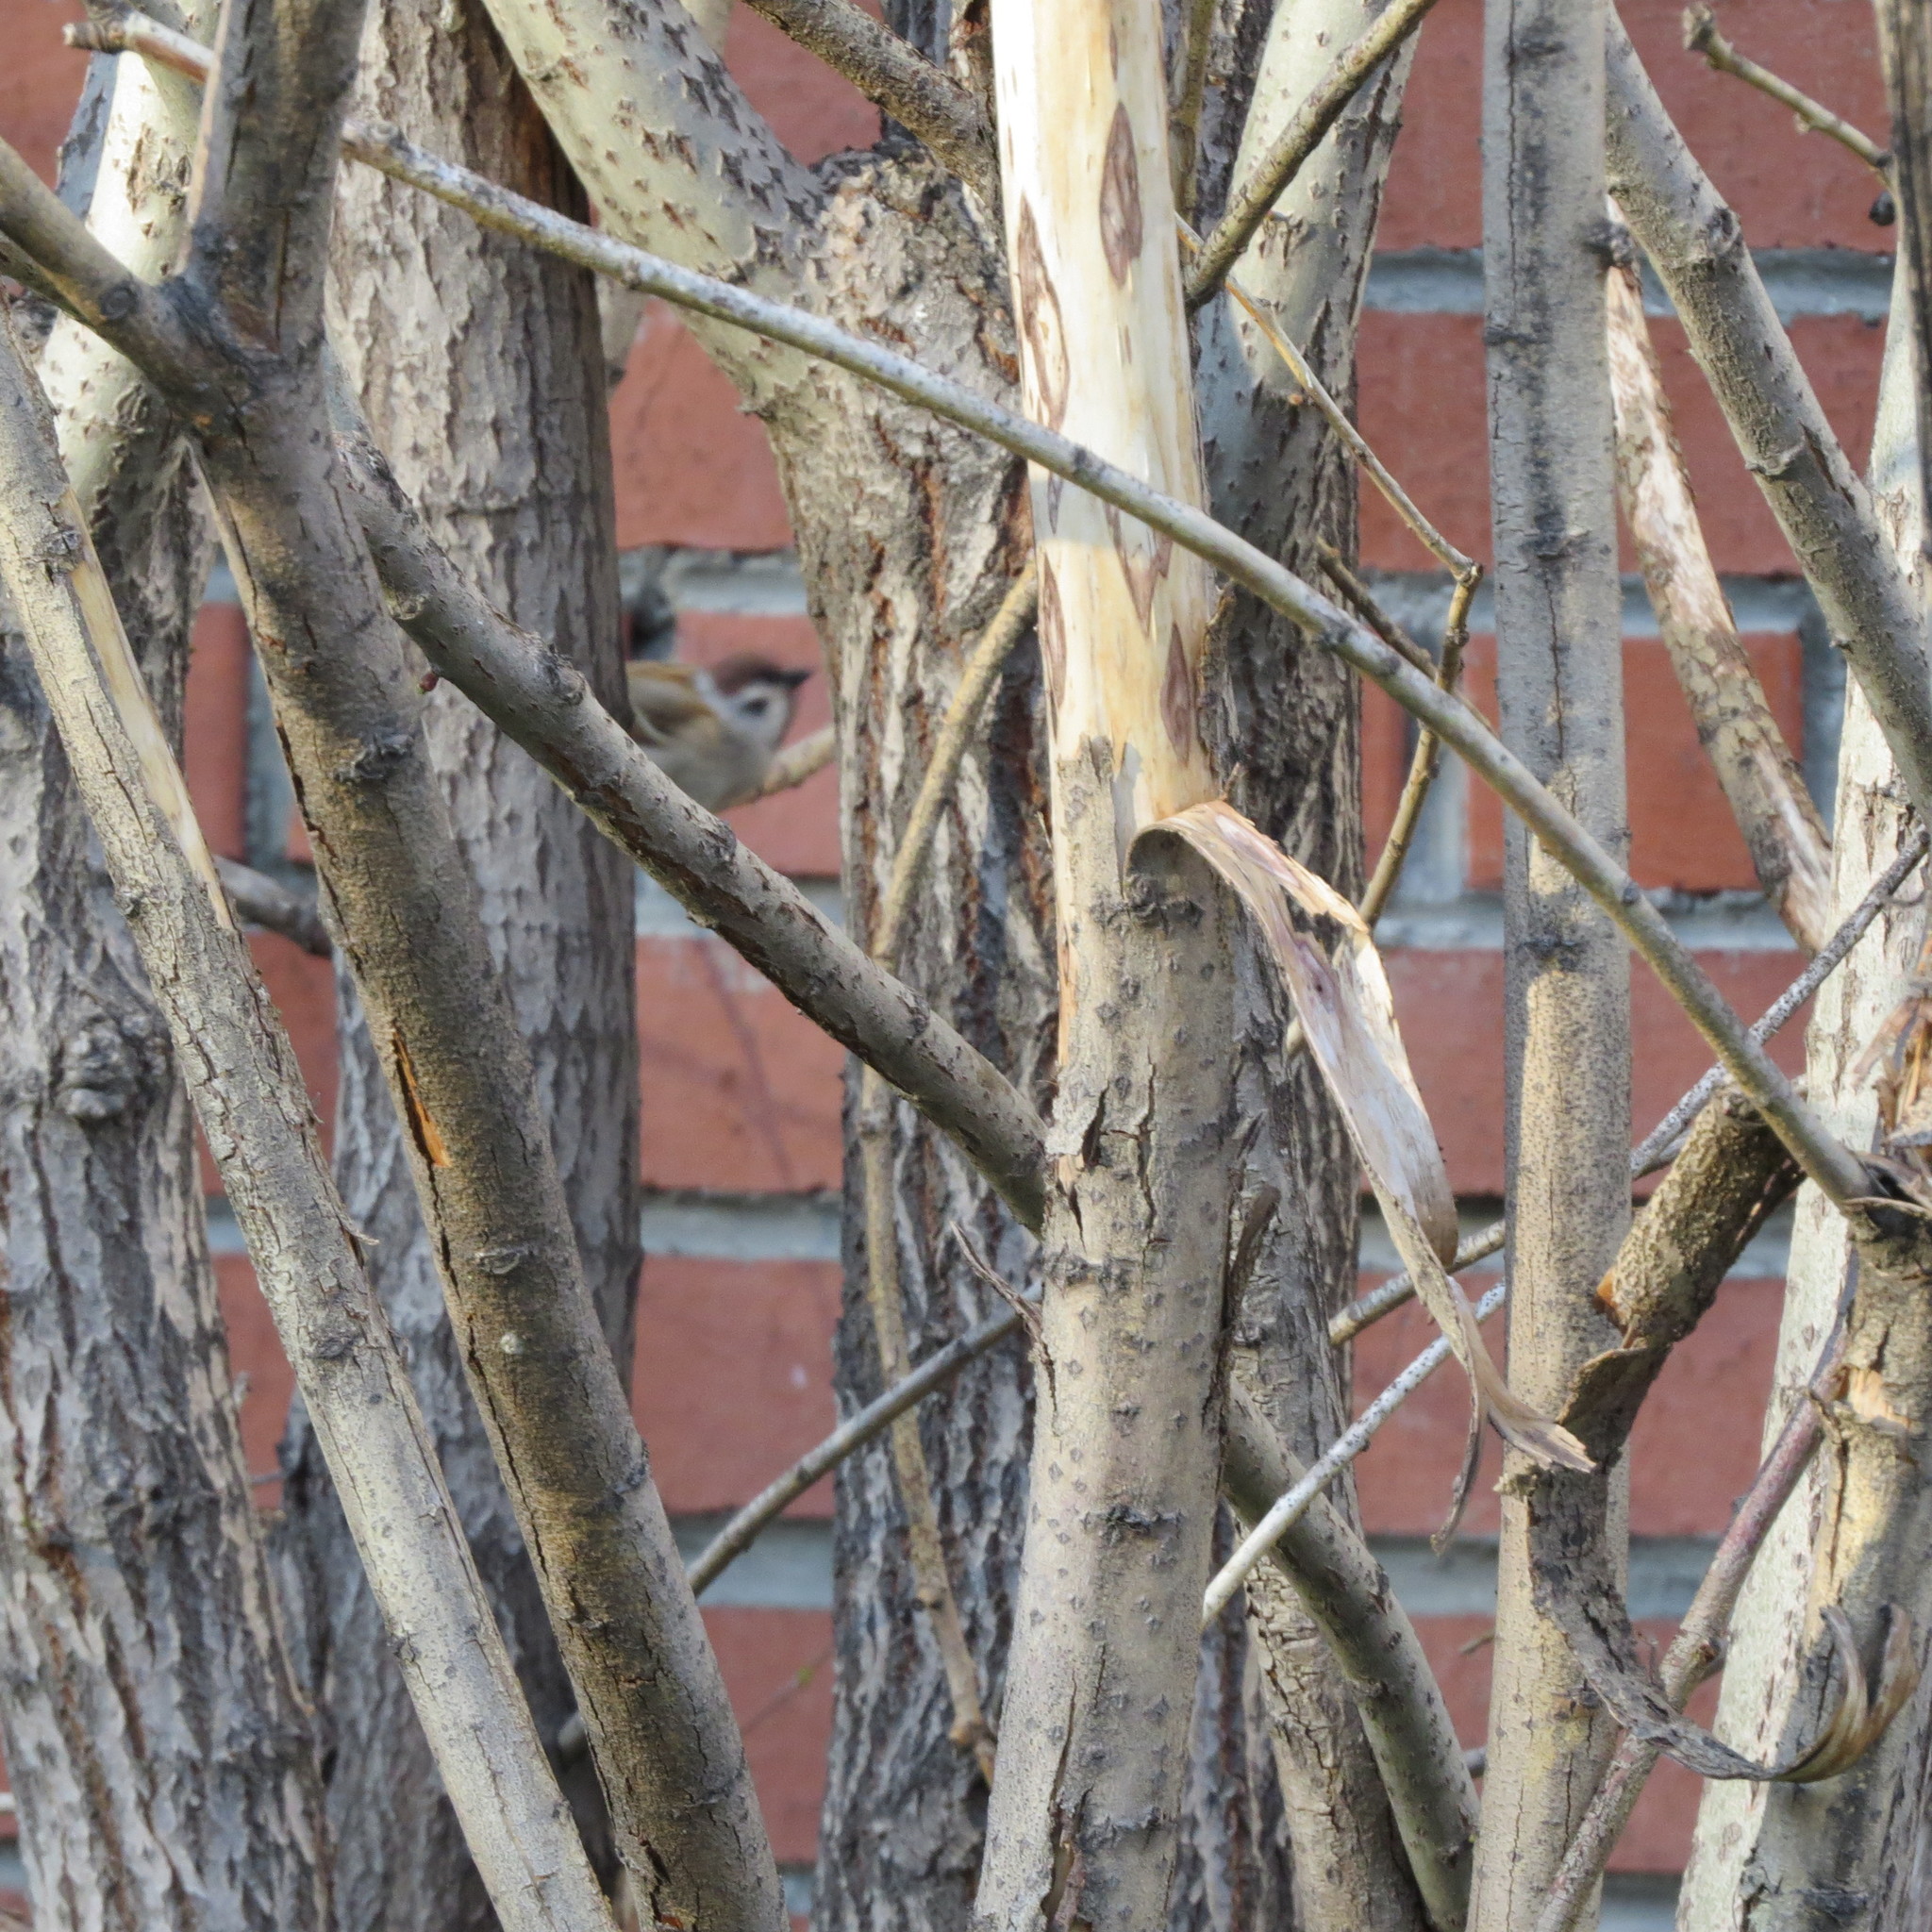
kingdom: Animalia
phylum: Chordata
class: Aves
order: Passeriformes
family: Passeridae
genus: Passer
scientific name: Passer montanus
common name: Eurasian tree sparrow
